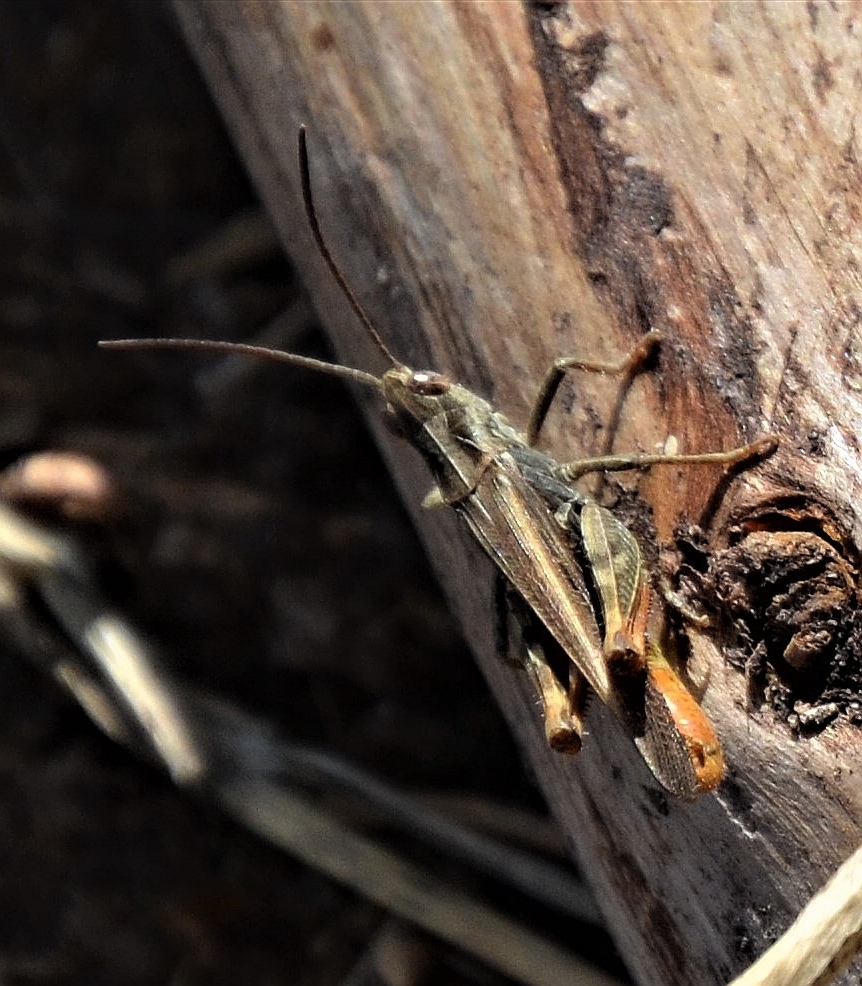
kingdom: Animalia
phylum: Arthropoda
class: Insecta
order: Orthoptera
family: Acrididae
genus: Chorthippus
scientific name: Chorthippus brunneus
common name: Field grasshopper
